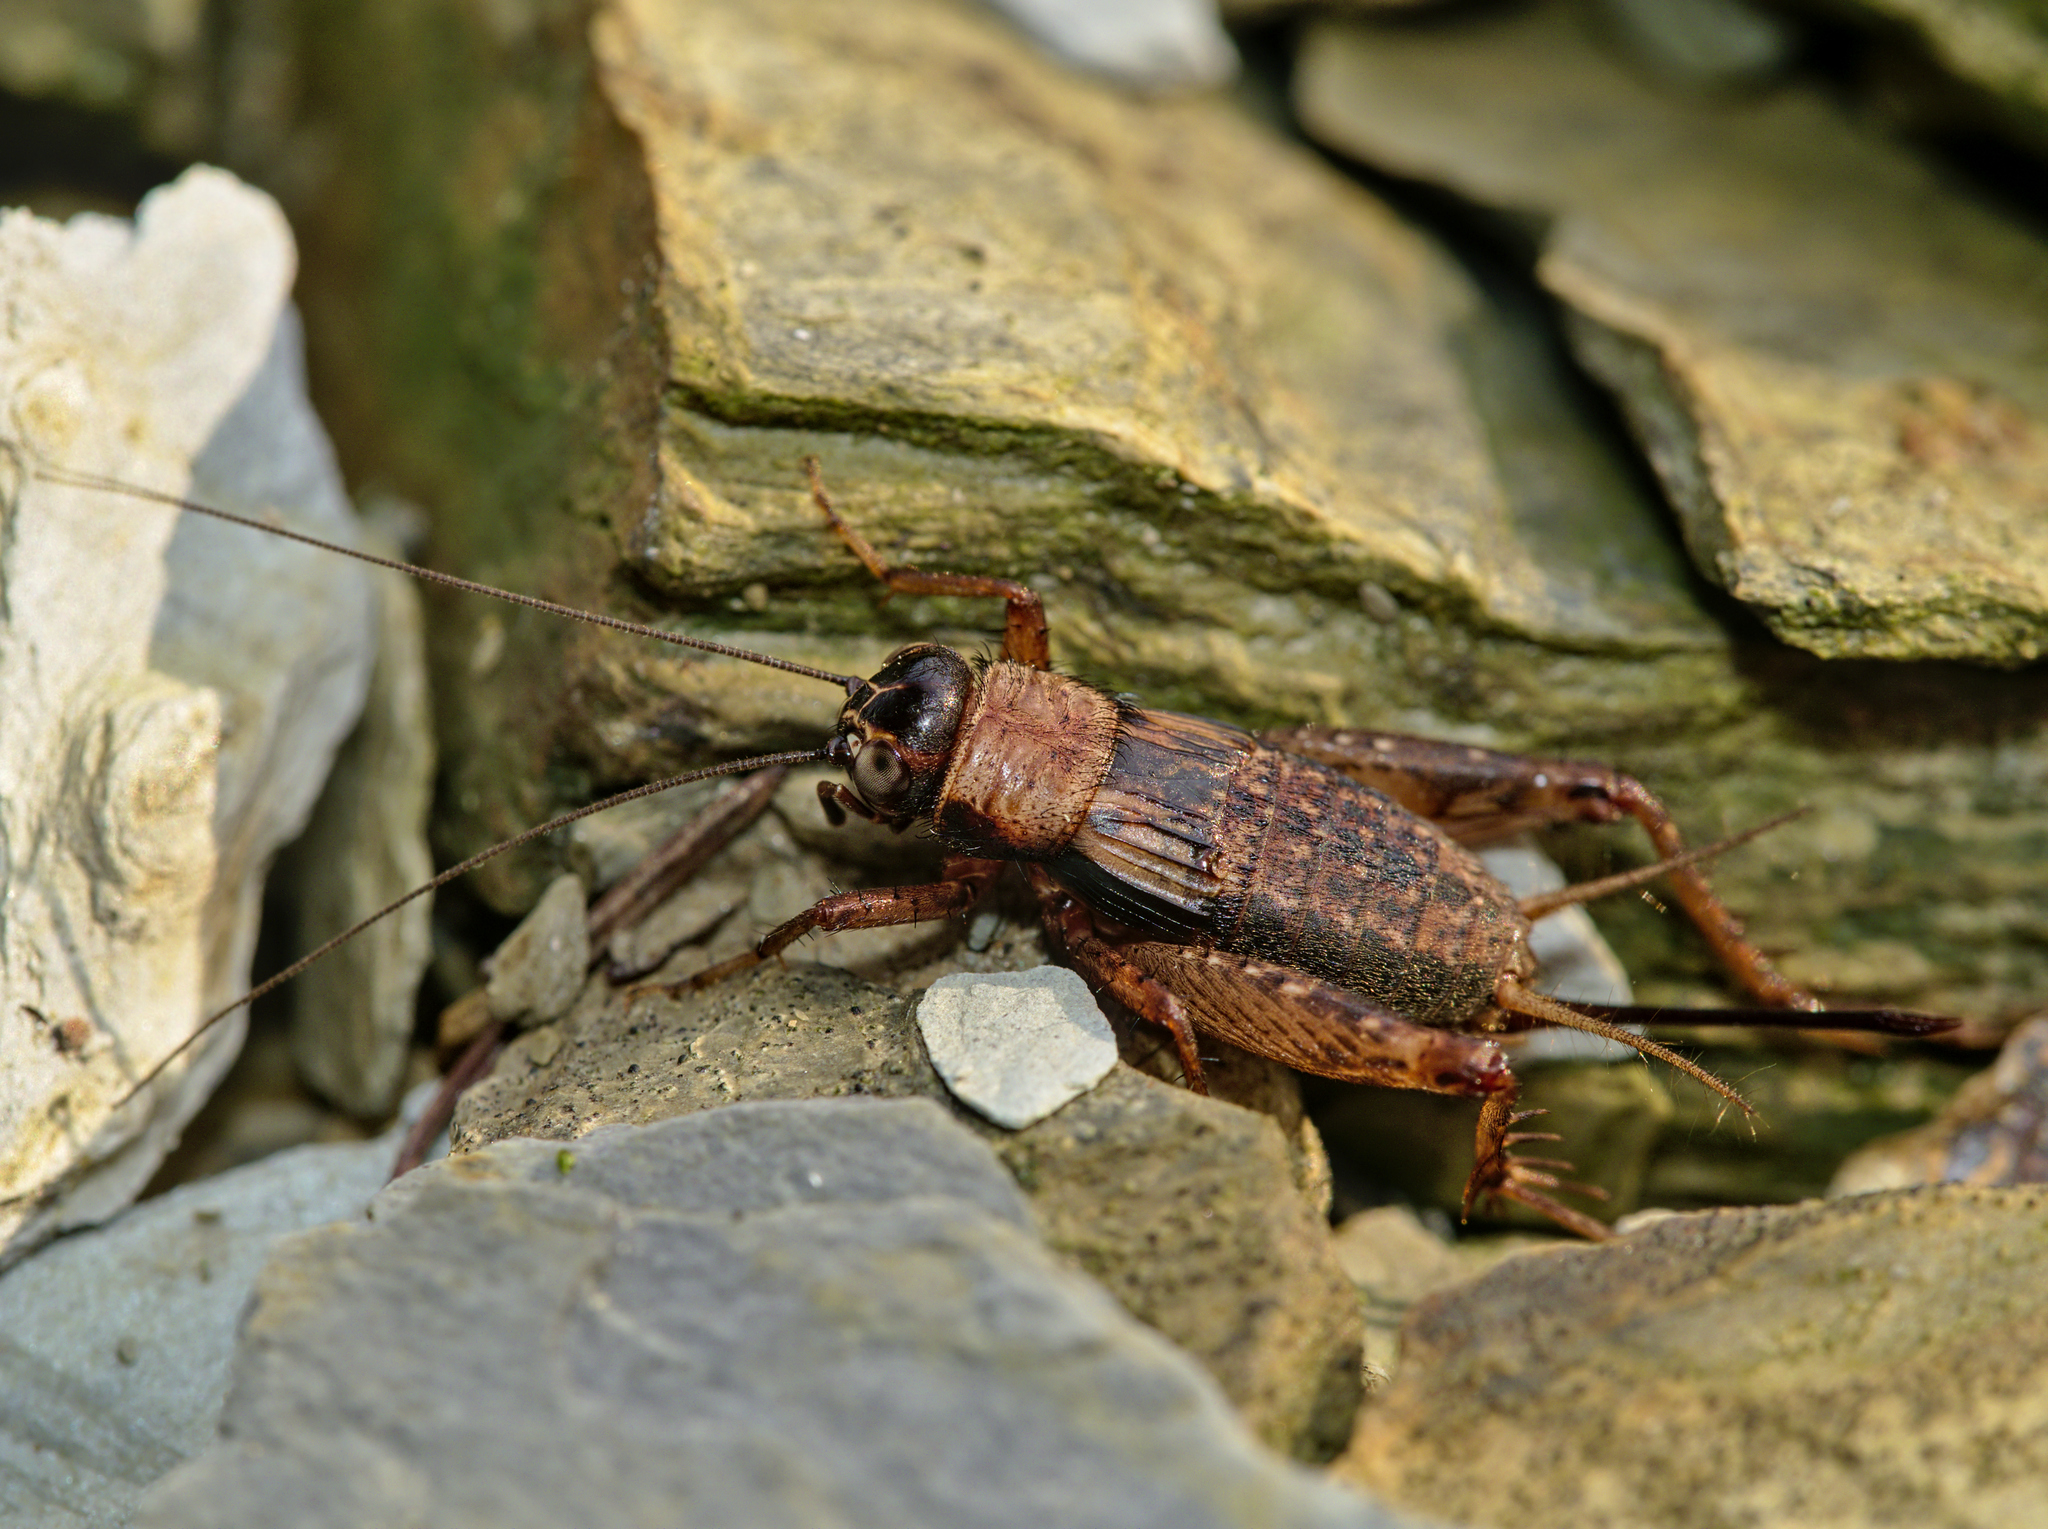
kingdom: Animalia
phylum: Arthropoda
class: Insecta
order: Orthoptera
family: Trigonidiidae
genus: Nemobius
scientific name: Nemobius sylvestris
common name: Wood-cricket
